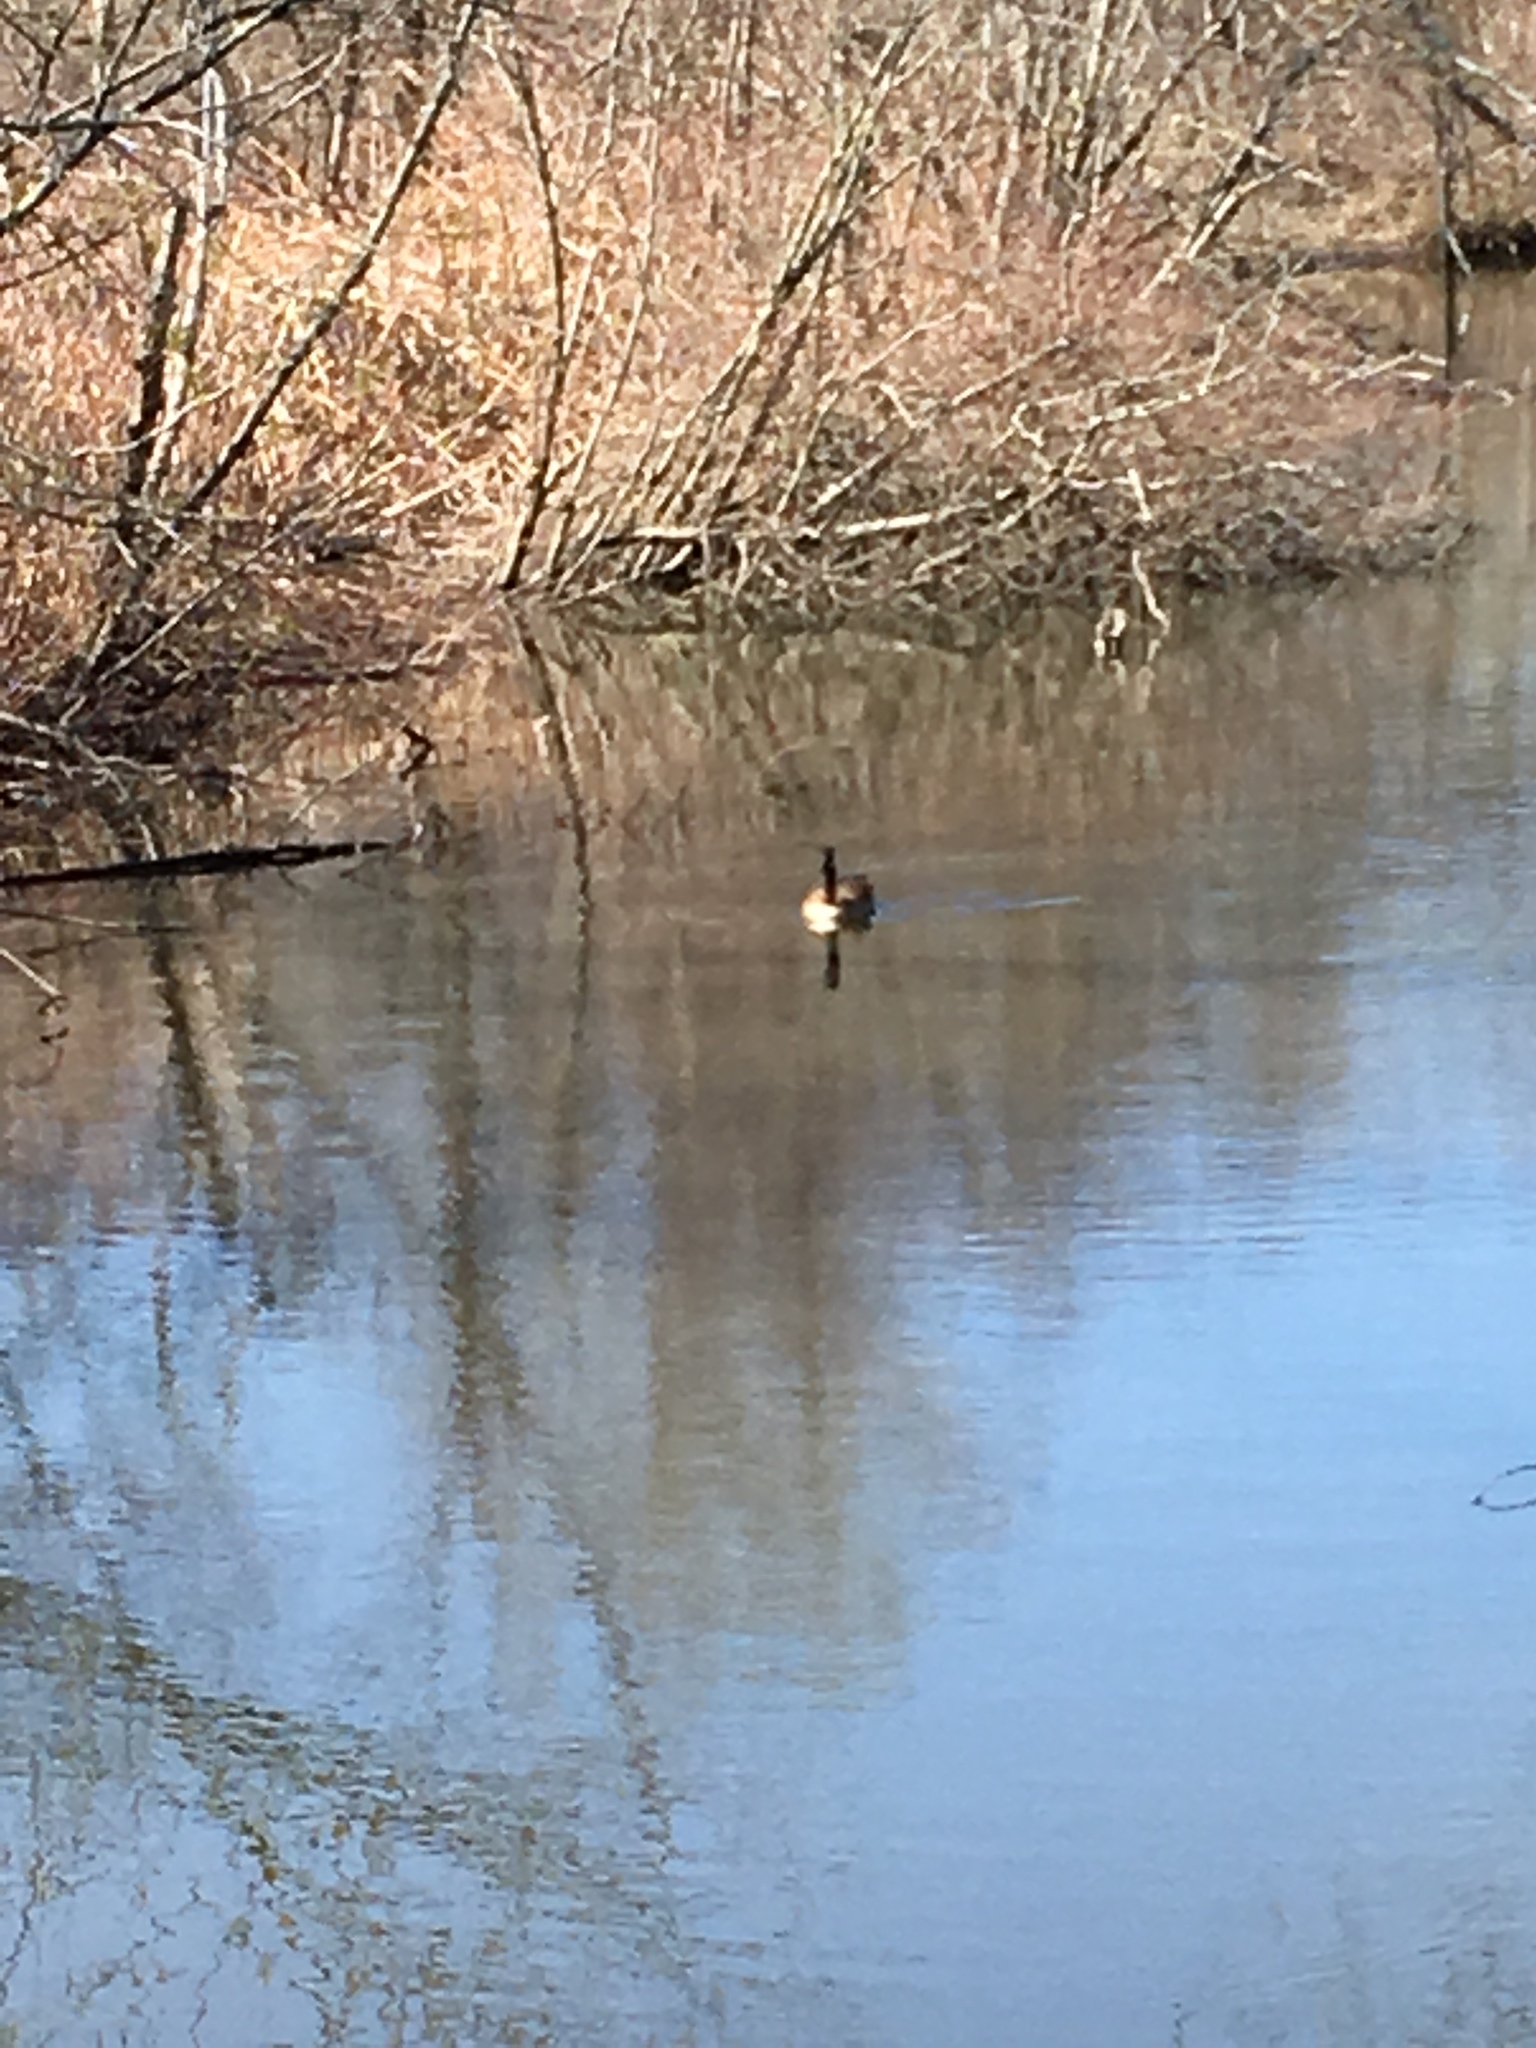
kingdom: Animalia
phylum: Chordata
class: Aves
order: Anseriformes
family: Anatidae
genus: Branta
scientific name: Branta canadensis
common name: Canada goose
